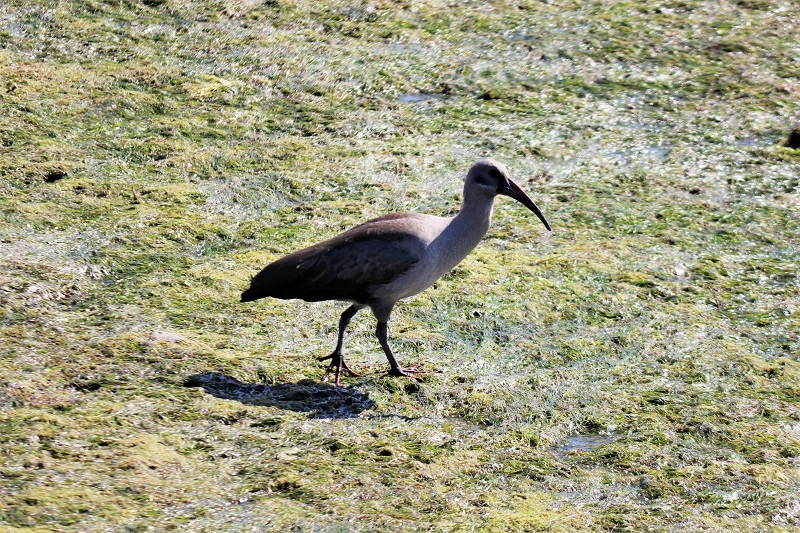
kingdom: Animalia
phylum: Chordata
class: Aves
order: Pelecaniformes
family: Threskiornithidae
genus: Bostrychia
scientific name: Bostrychia hagedash
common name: Hadada ibis
